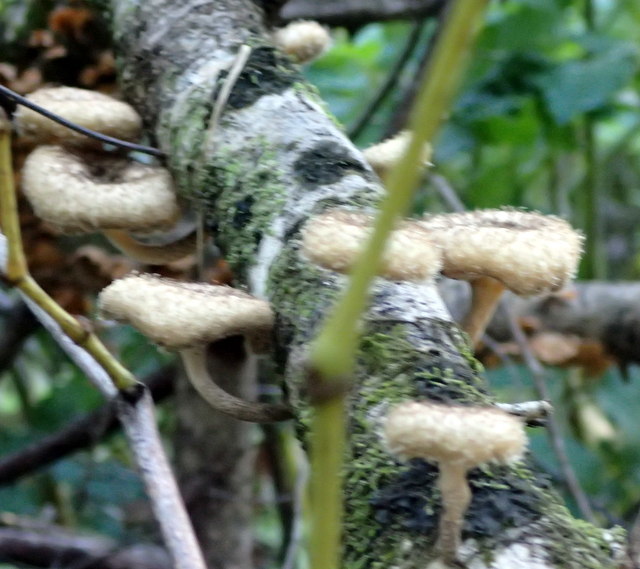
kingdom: Fungi
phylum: Basidiomycota
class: Agaricomycetes
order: Polyporales
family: Polyporaceae
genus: Lentinus
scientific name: Lentinus crinitus
